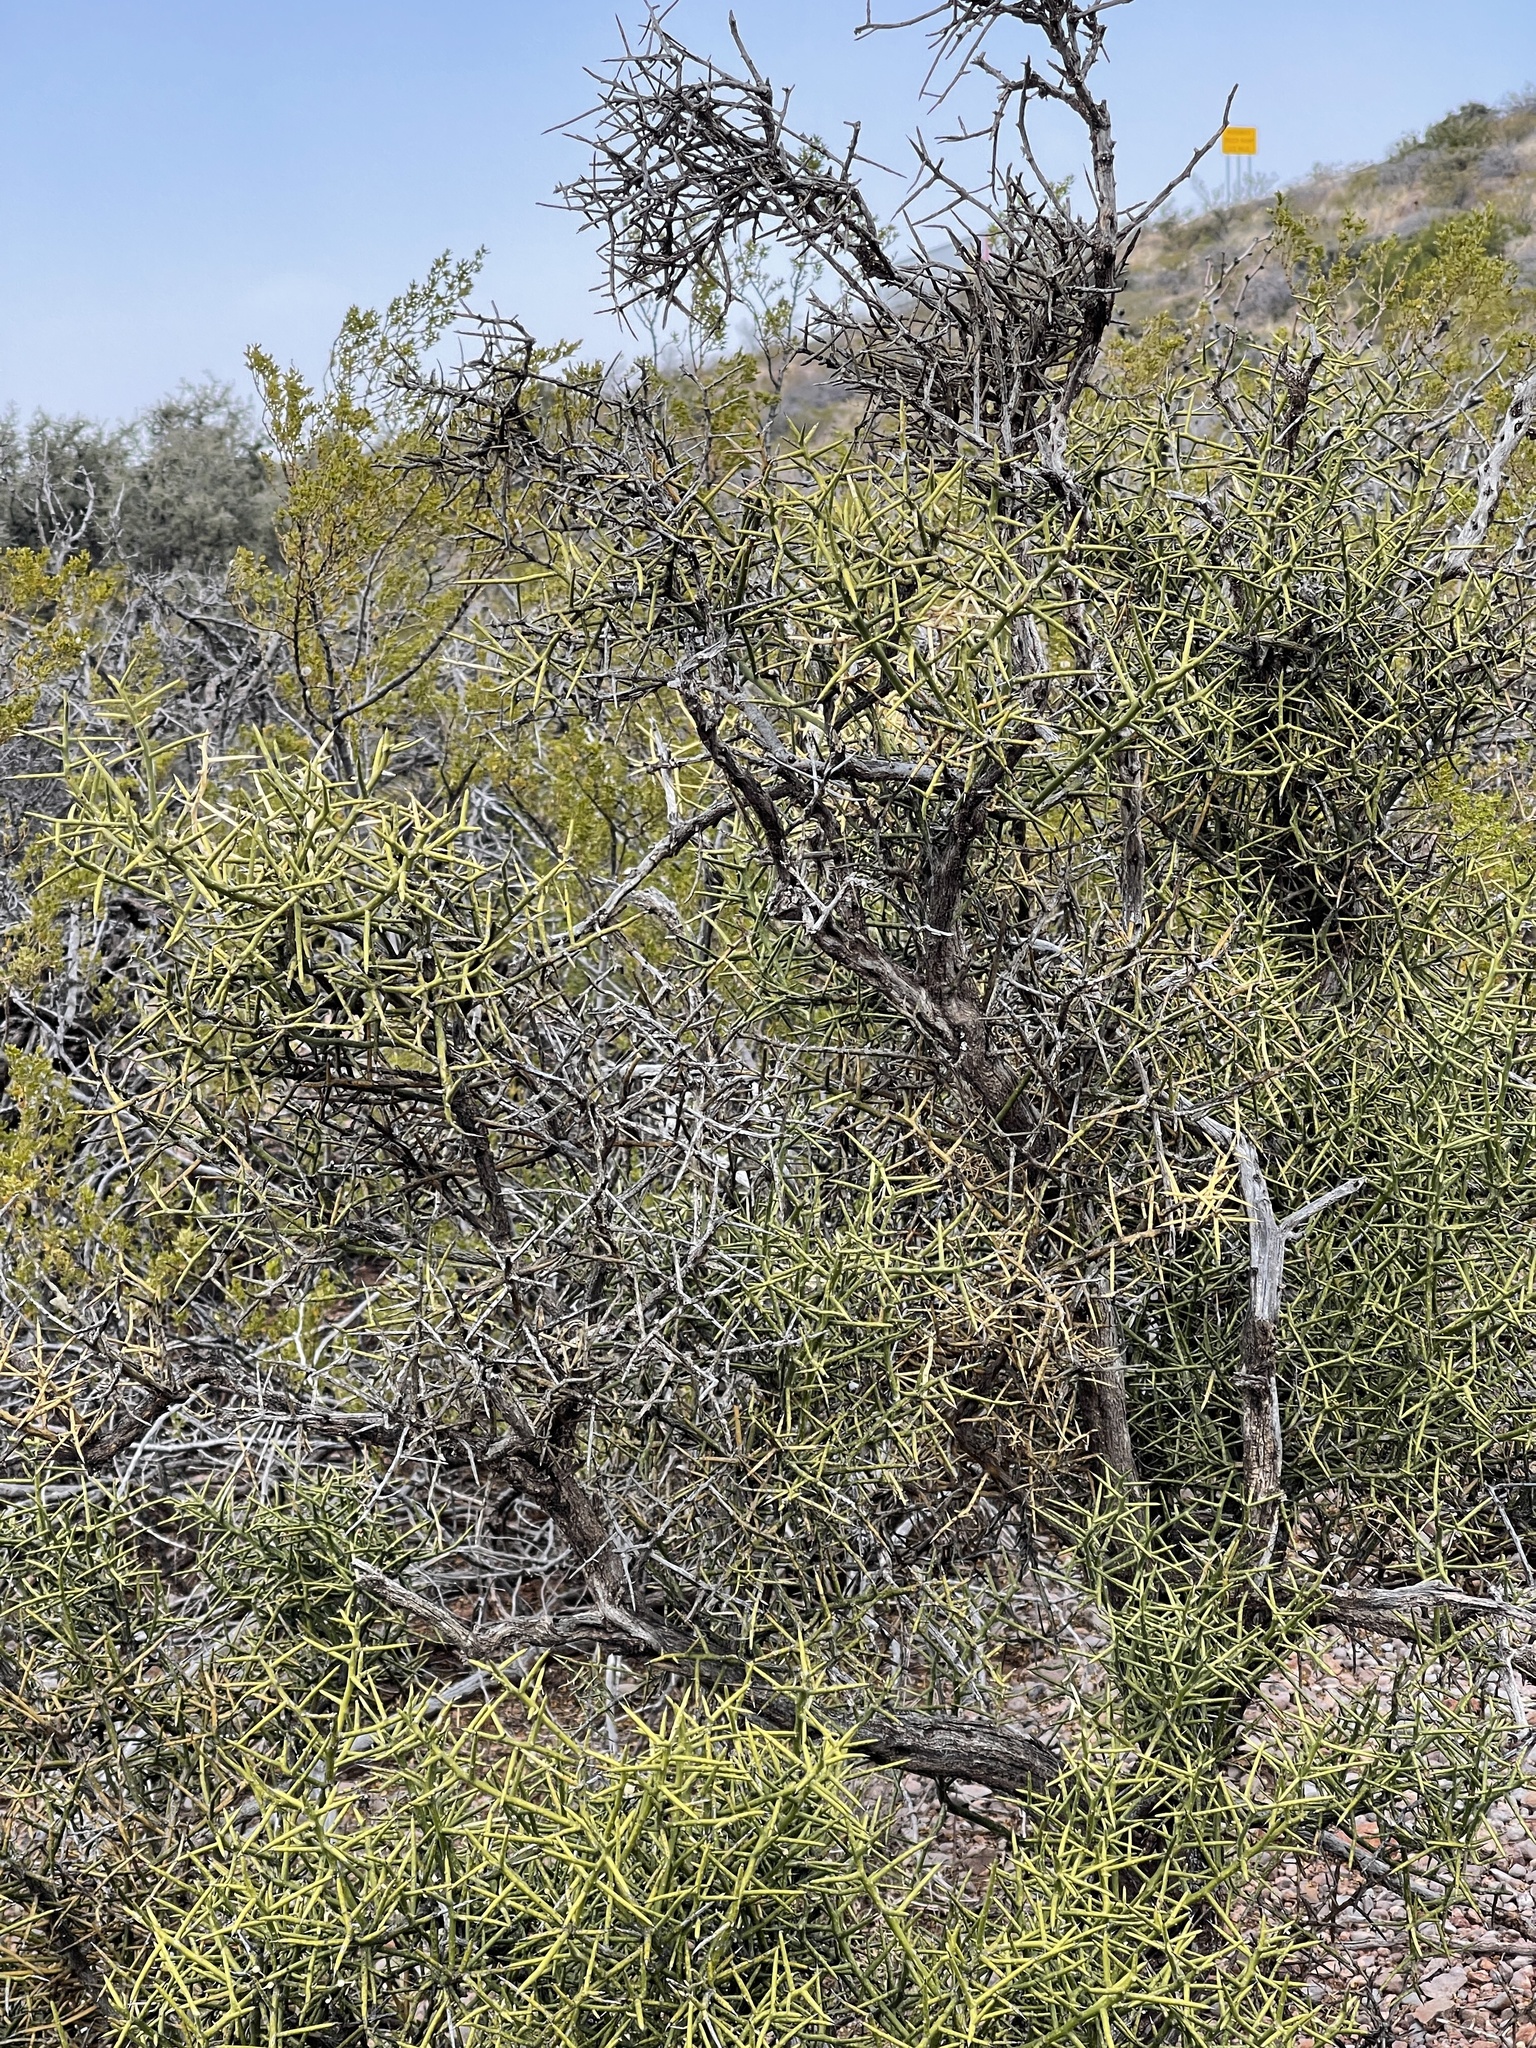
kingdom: Plantae
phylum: Tracheophyta
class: Magnoliopsida
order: Brassicales
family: Koeberliniaceae
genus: Koeberlinia
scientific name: Koeberlinia spinosa
